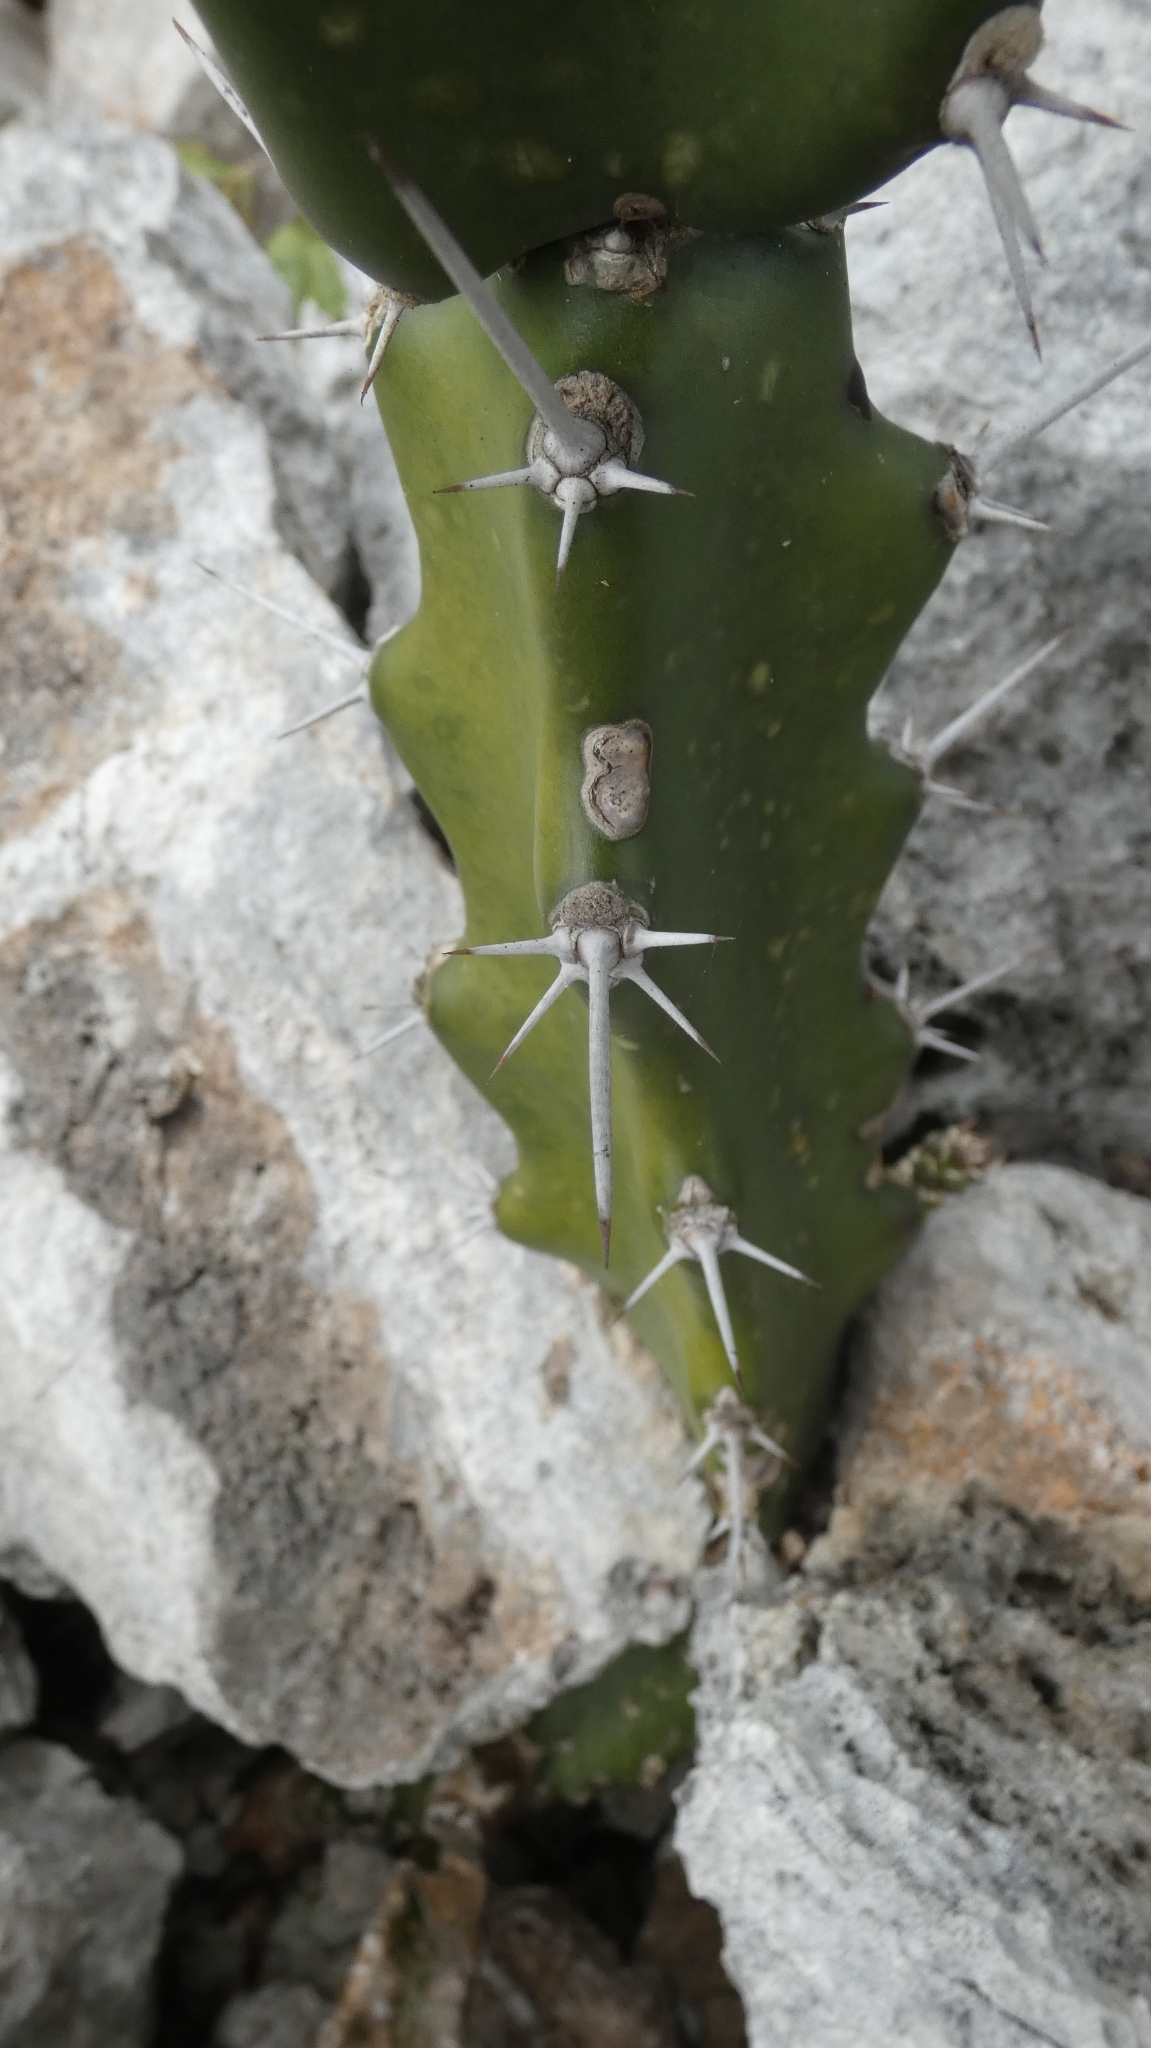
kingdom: Plantae
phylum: Tracheophyta
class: Magnoliopsida
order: Caryophyllales
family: Cactaceae
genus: Acanthocereus
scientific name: Acanthocereus tetragonus
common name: Triangle cactus
